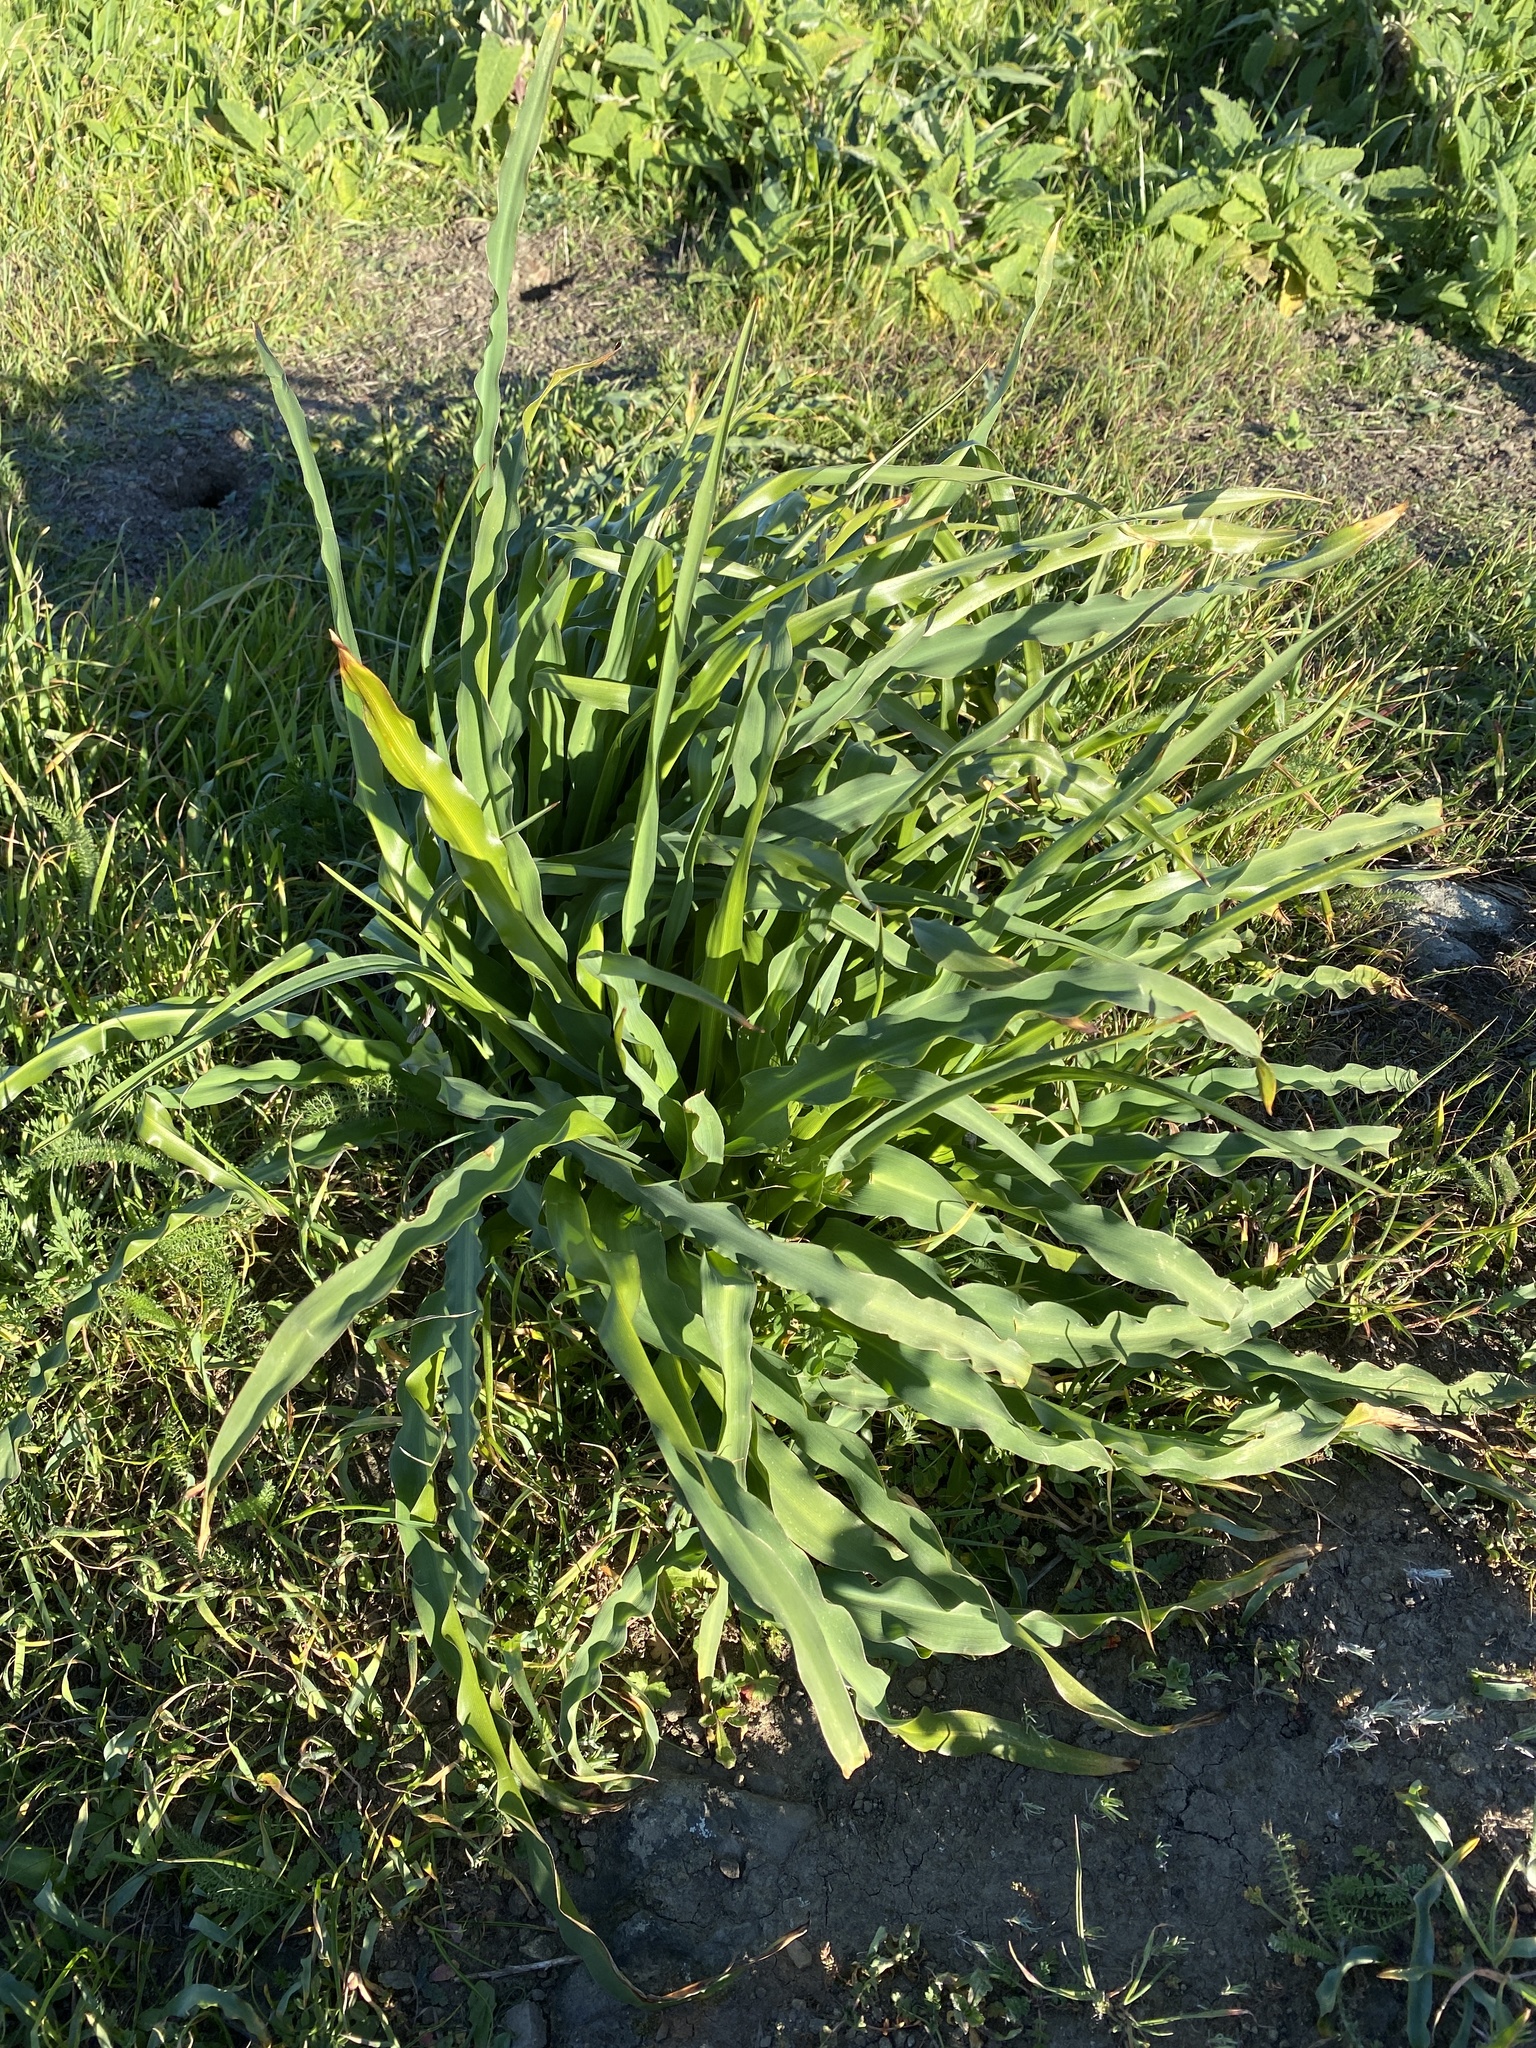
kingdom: Plantae
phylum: Tracheophyta
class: Liliopsida
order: Asparagales
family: Asparagaceae
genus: Chlorogalum
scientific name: Chlorogalum pomeridianum
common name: Amole
